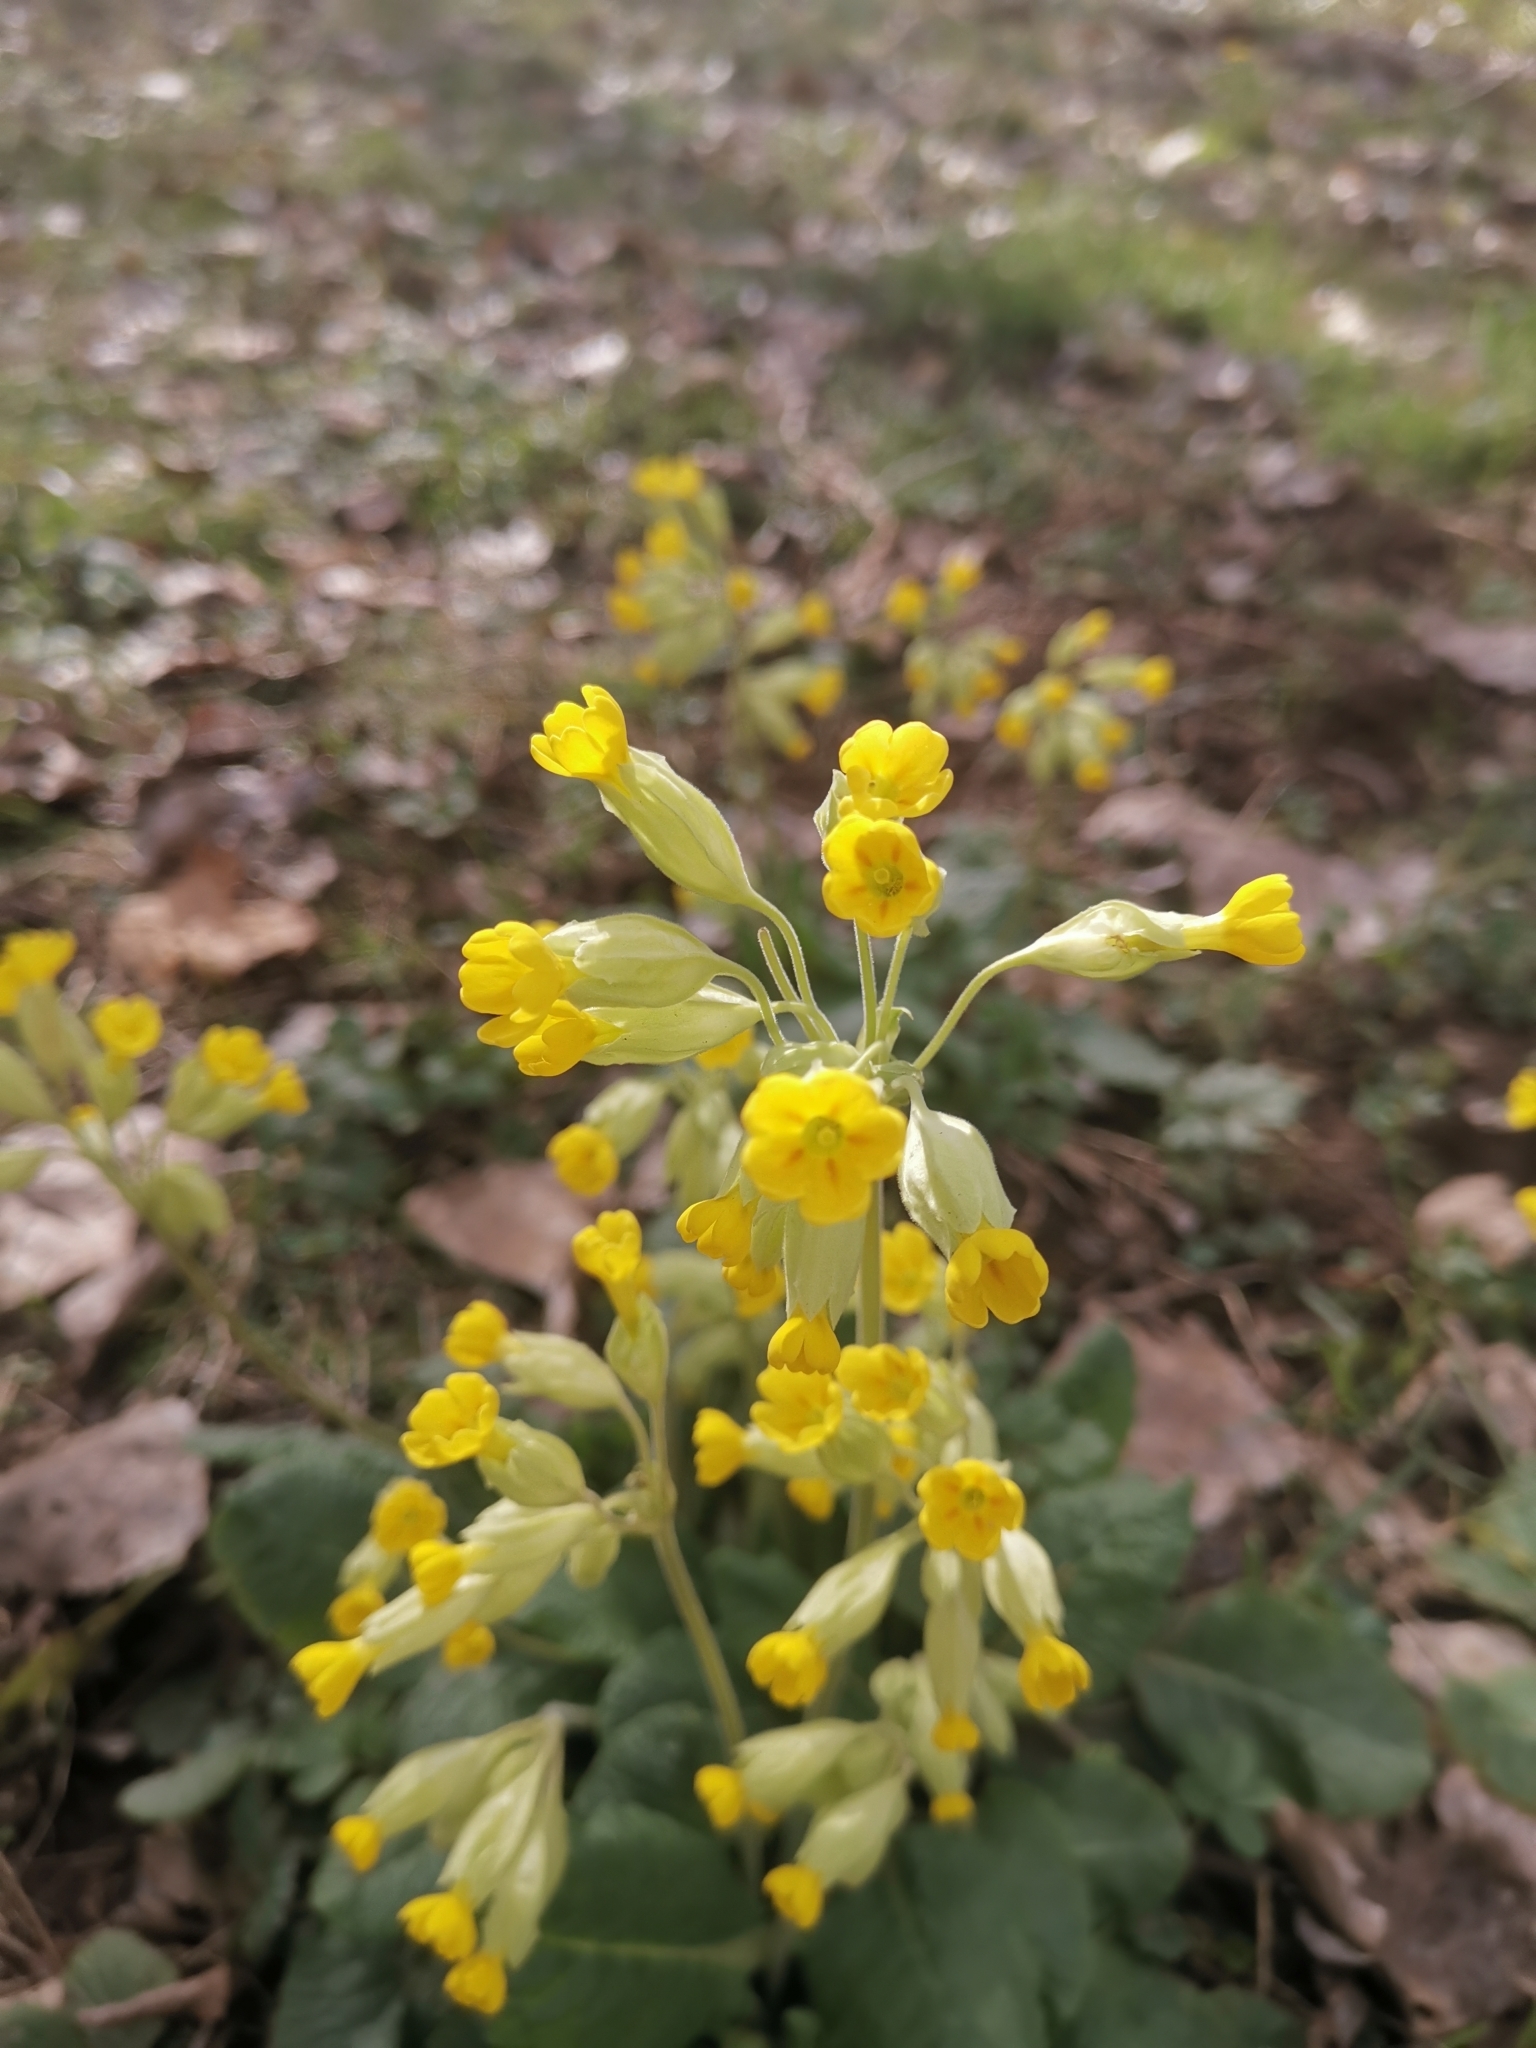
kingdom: Plantae
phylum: Tracheophyta
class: Magnoliopsida
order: Ericales
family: Primulaceae
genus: Primula
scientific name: Primula veris
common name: Cowslip
